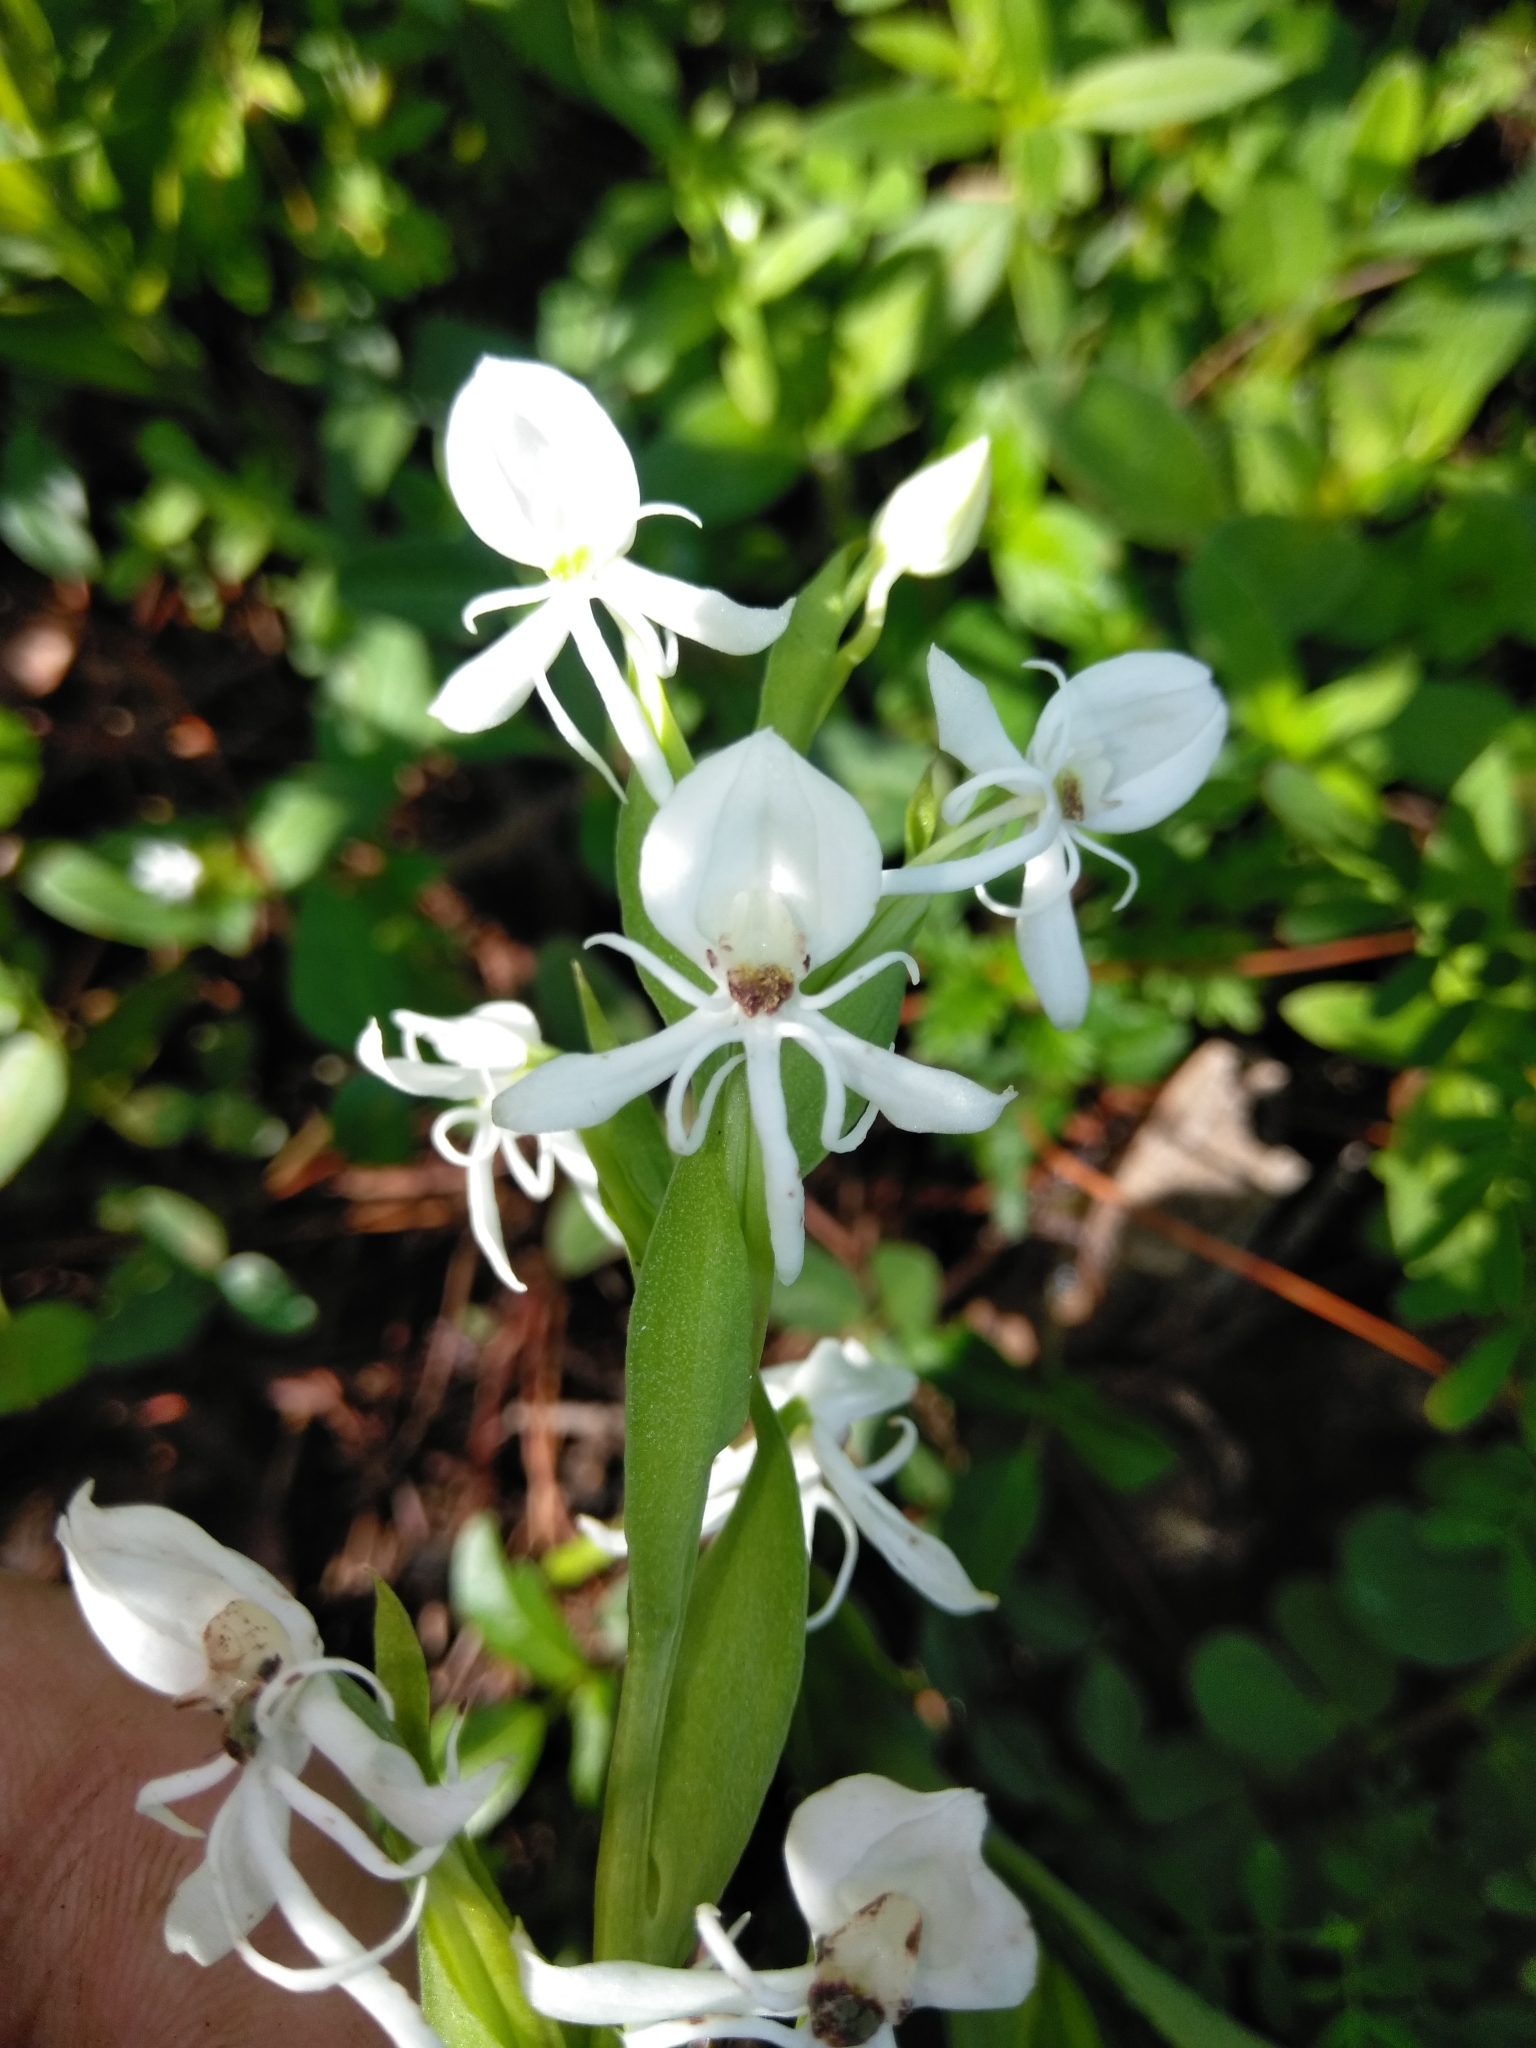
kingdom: Plantae
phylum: Tracheophyta
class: Liliopsida
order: Asparagales
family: Orchidaceae
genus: Habenaria
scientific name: Habenaria entomantha
